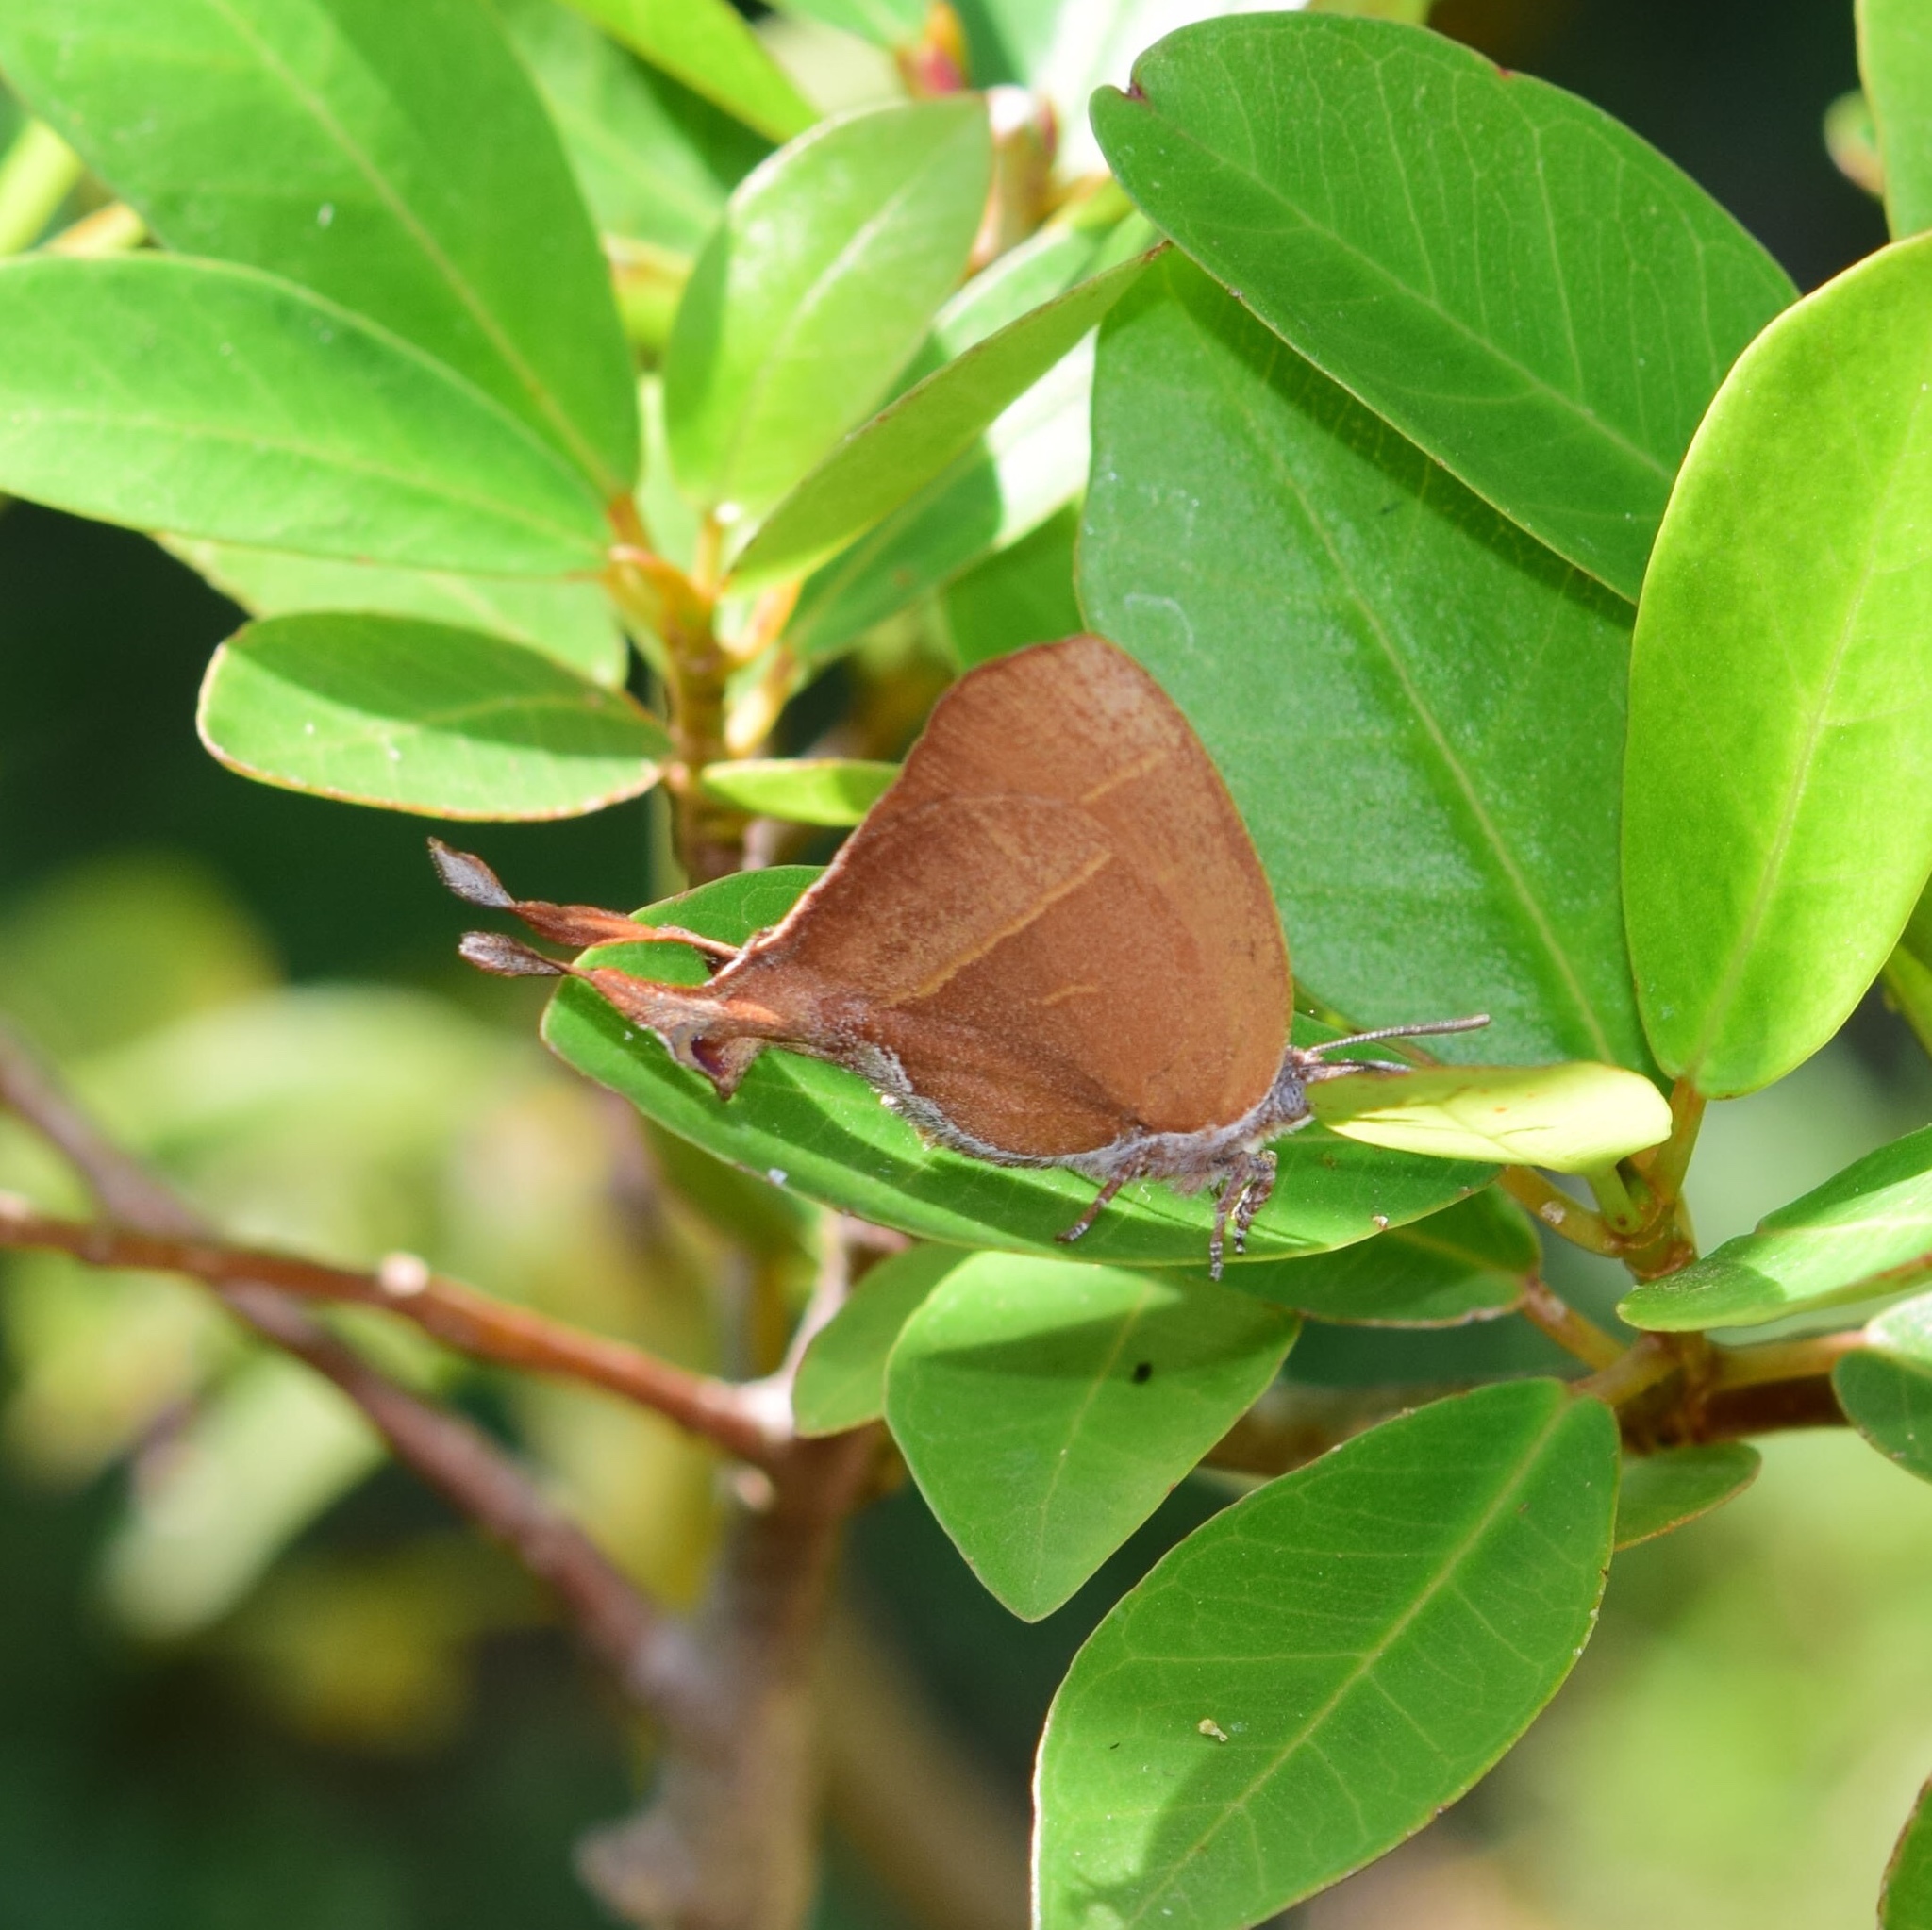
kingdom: Animalia
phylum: Arthropoda
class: Insecta
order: Lepidoptera
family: Lycaenidae
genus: Myrina
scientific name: Myrina silenus
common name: Amber fig-tree blue
